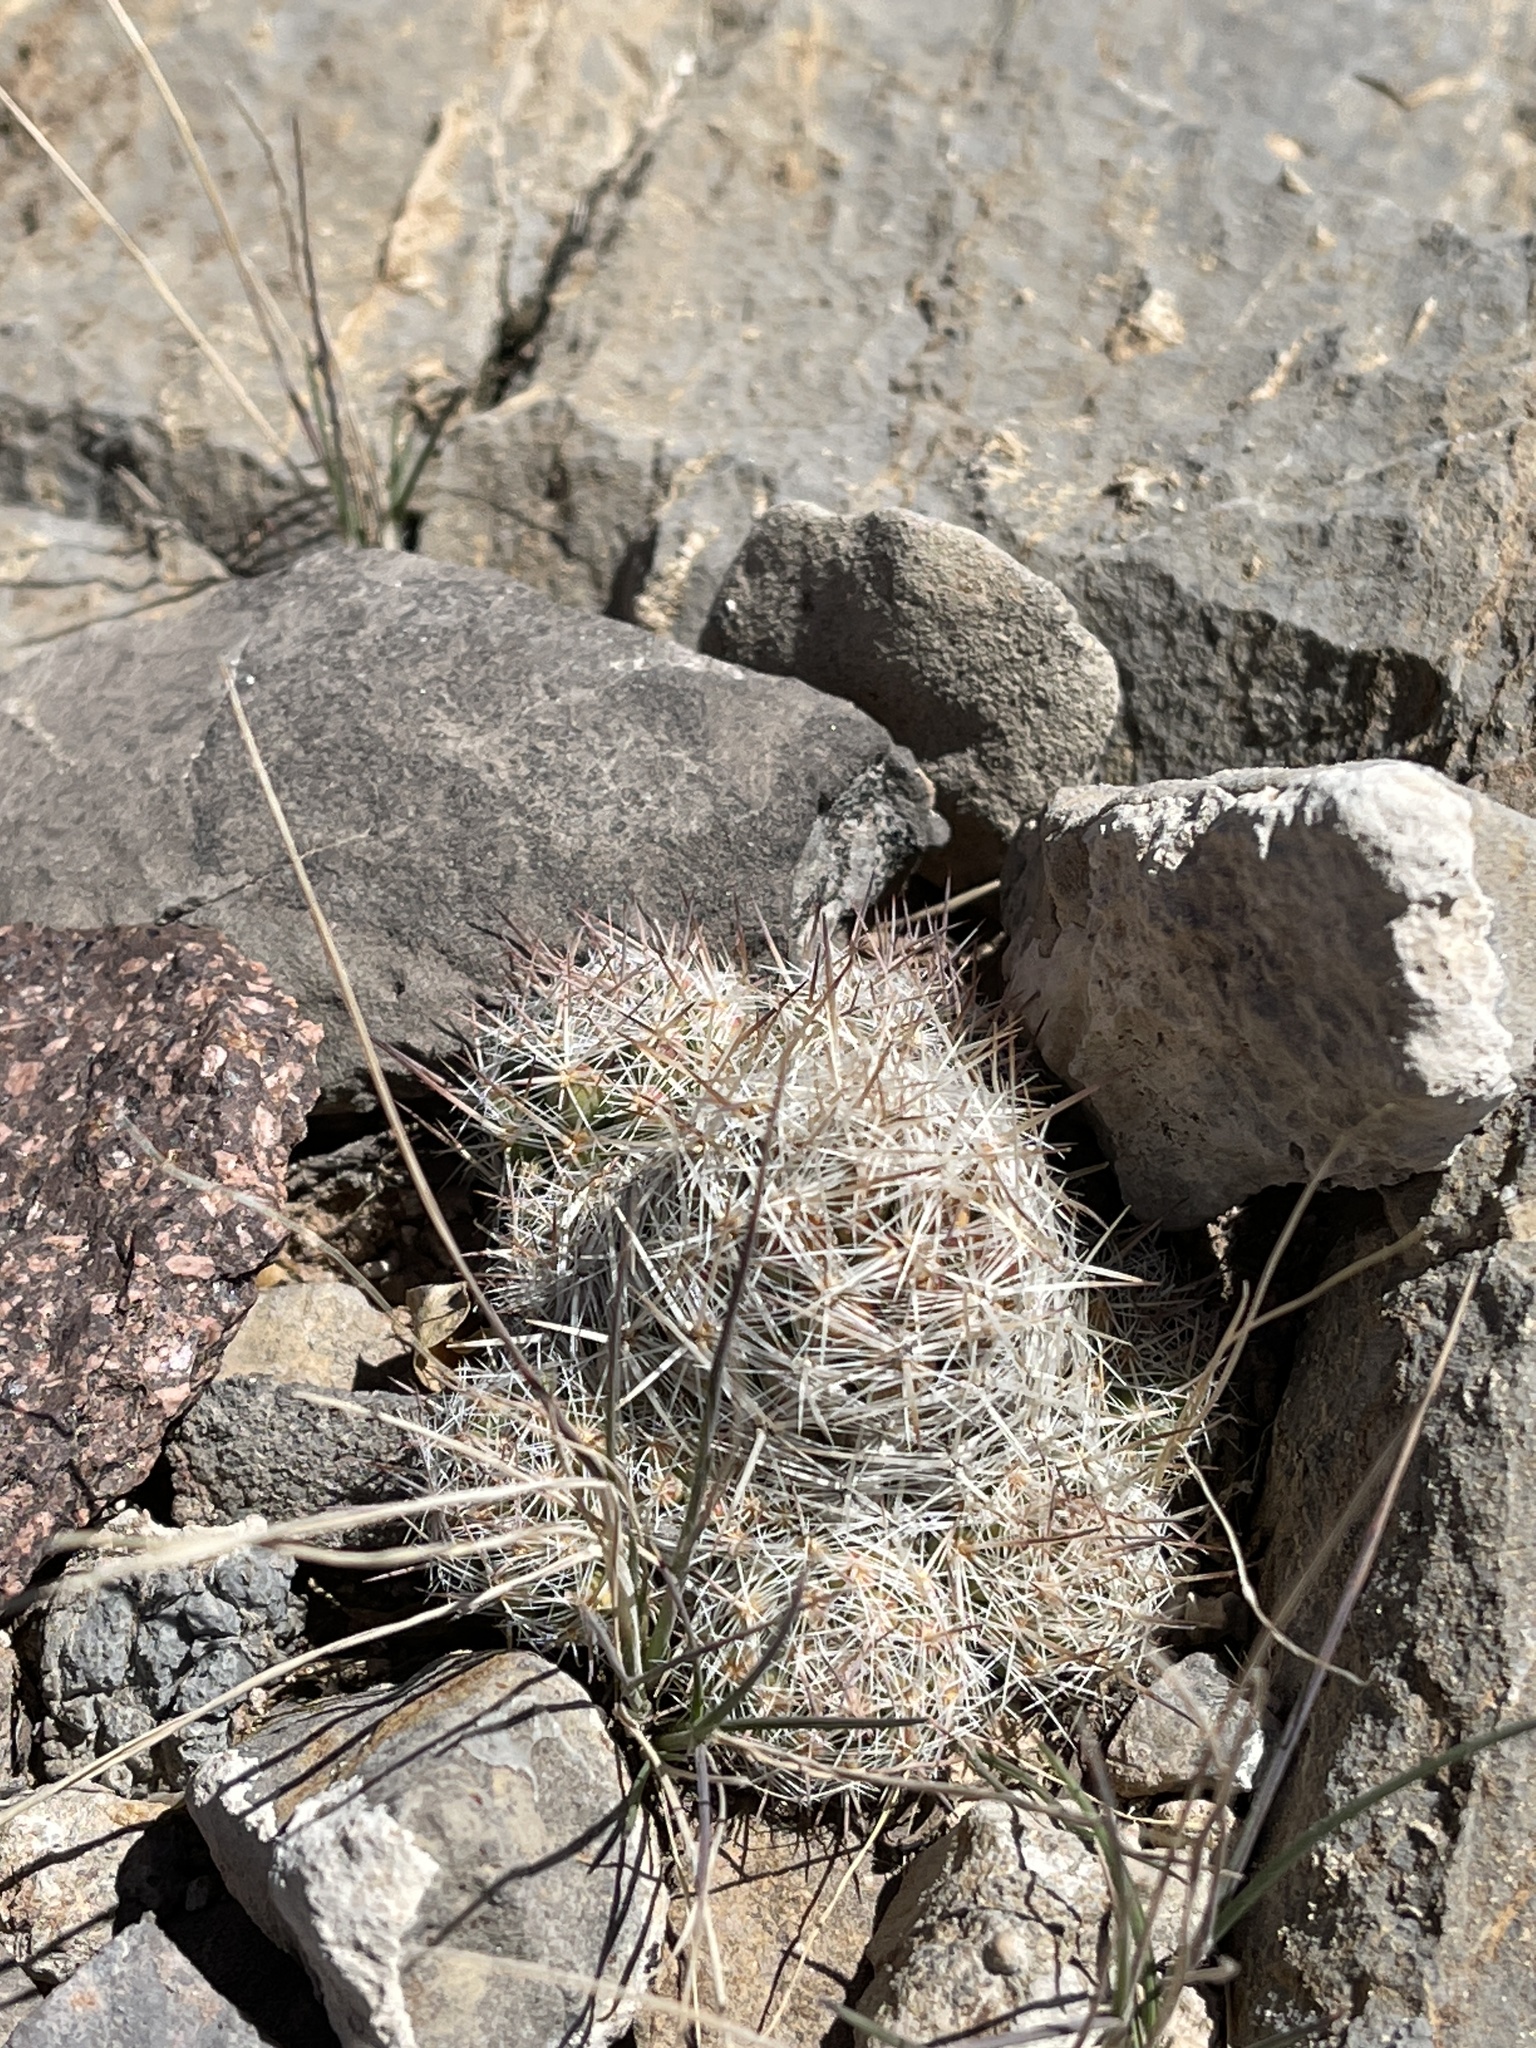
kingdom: Plantae
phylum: Tracheophyta
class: Magnoliopsida
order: Caryophyllales
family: Cactaceae
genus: Pelecyphora
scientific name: Pelecyphora tuberculosa
